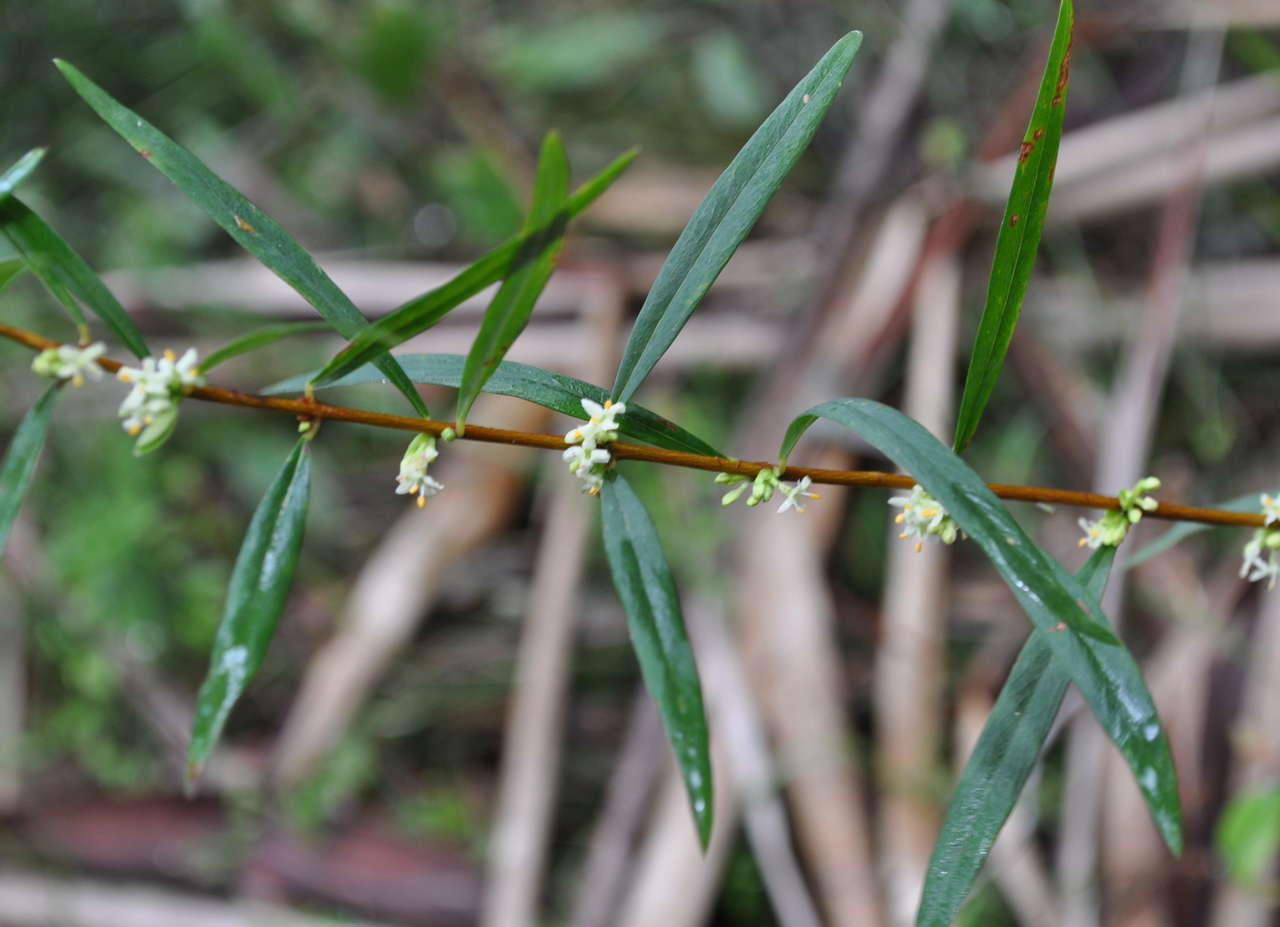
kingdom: Plantae
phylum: Tracheophyta
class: Magnoliopsida
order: Malvales
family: Thymelaeaceae
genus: Pimelea
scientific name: Pimelea axiflora
